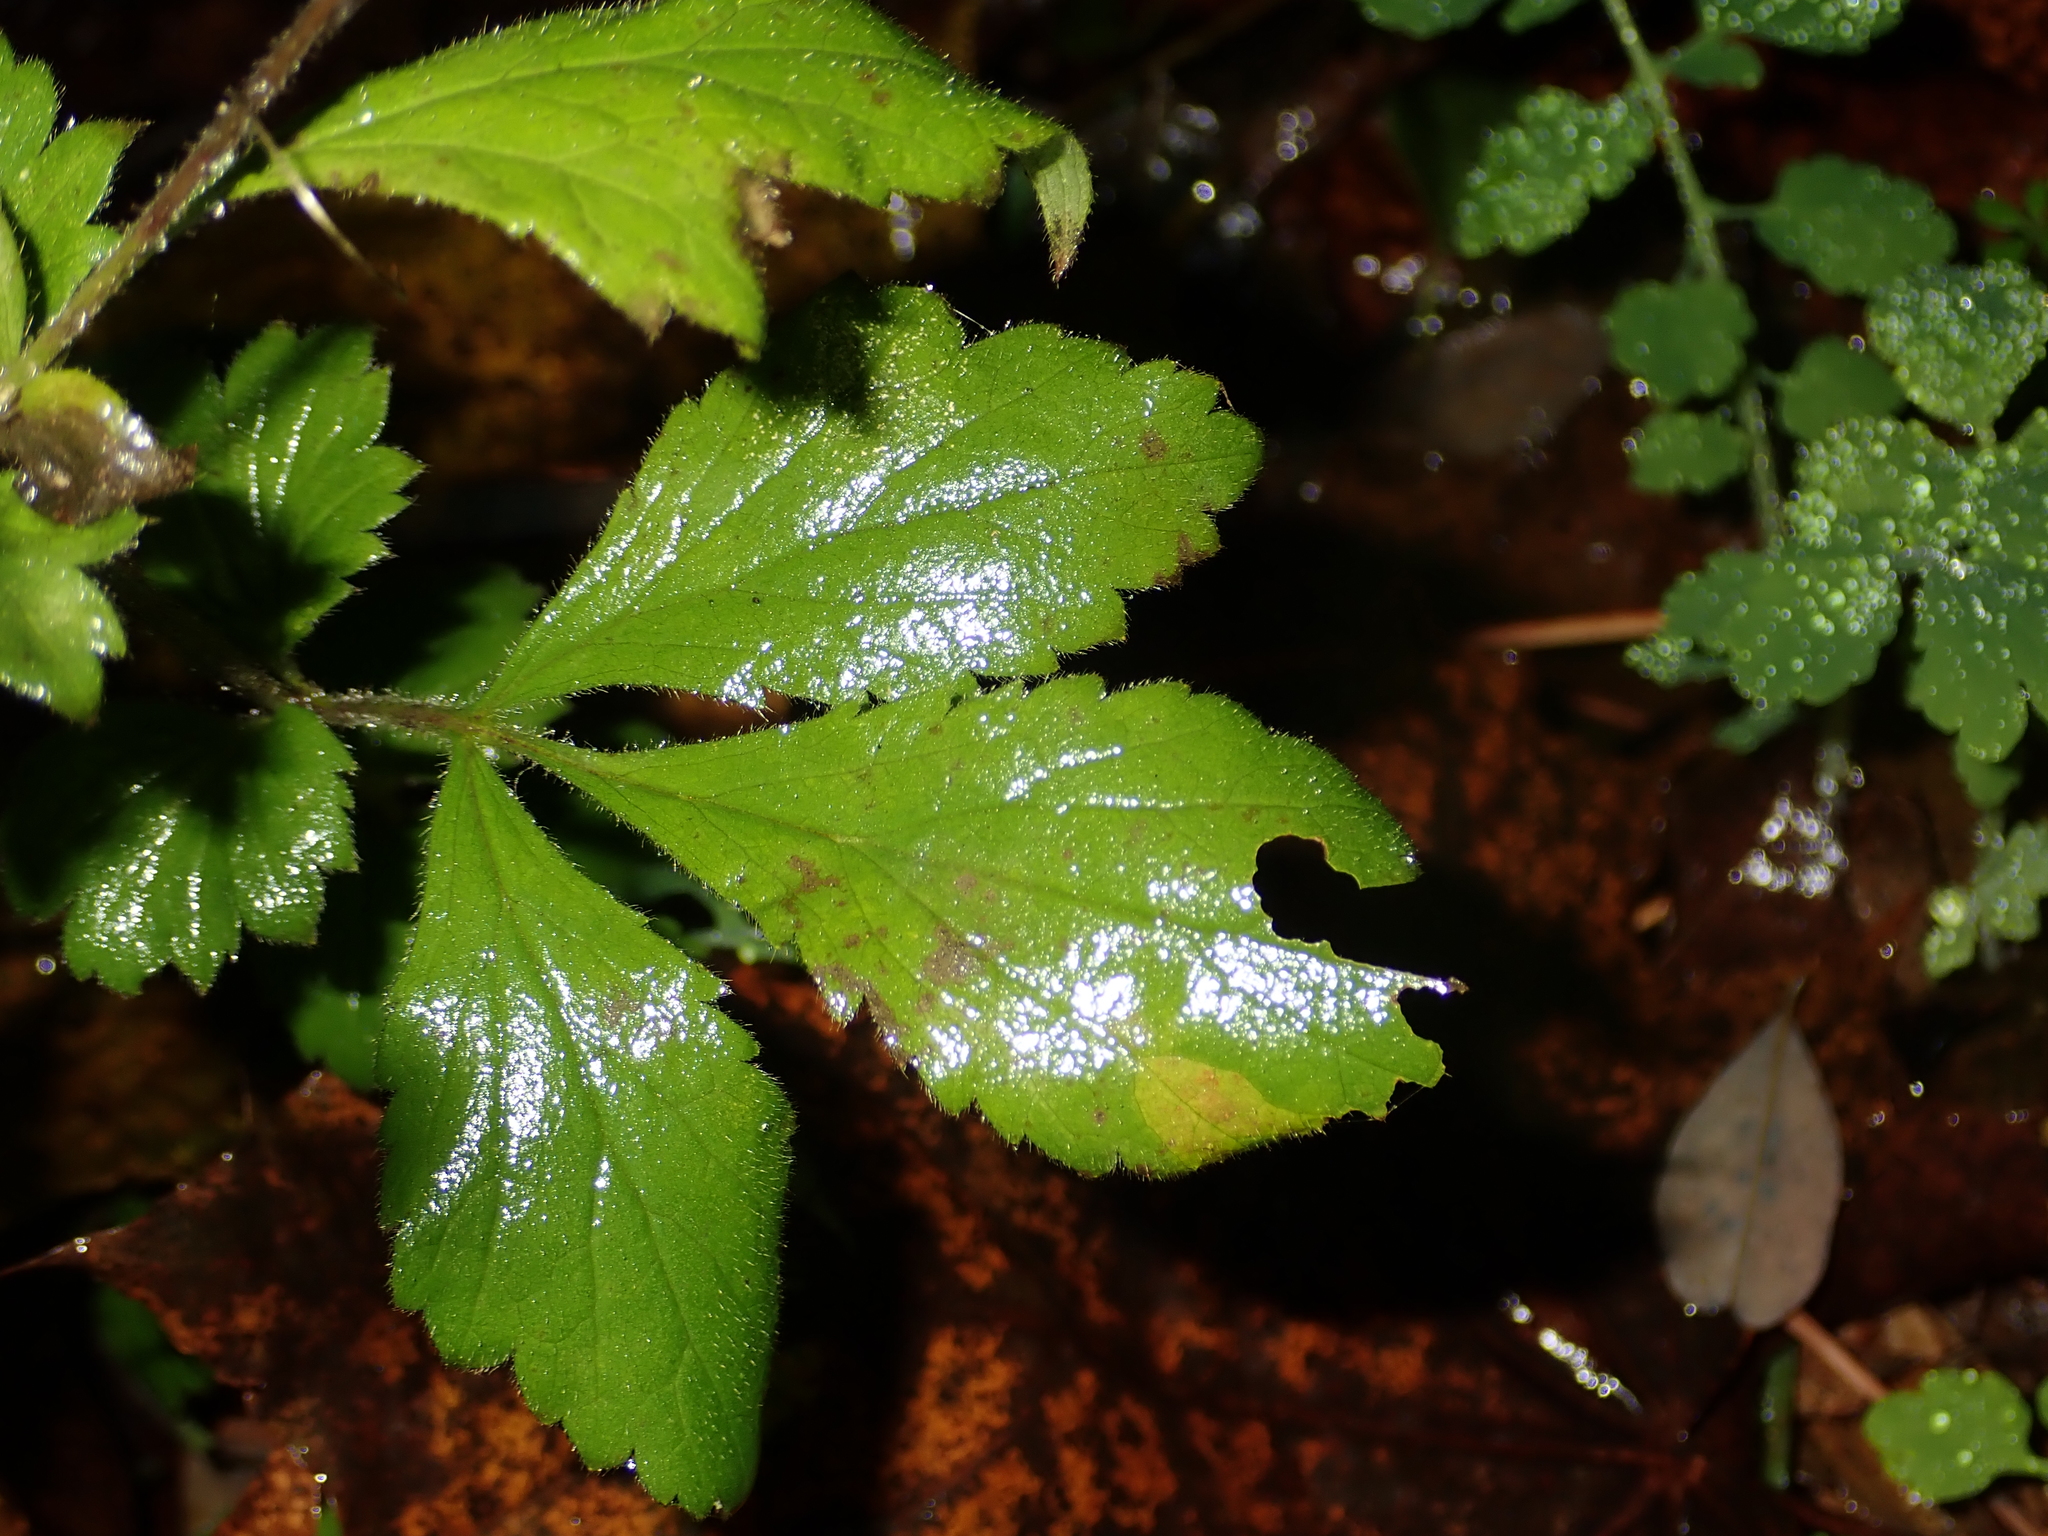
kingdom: Plantae
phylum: Tracheophyta
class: Magnoliopsida
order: Rosales
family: Rosaceae
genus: Geum
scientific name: Geum urbanum
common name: Wood avens
